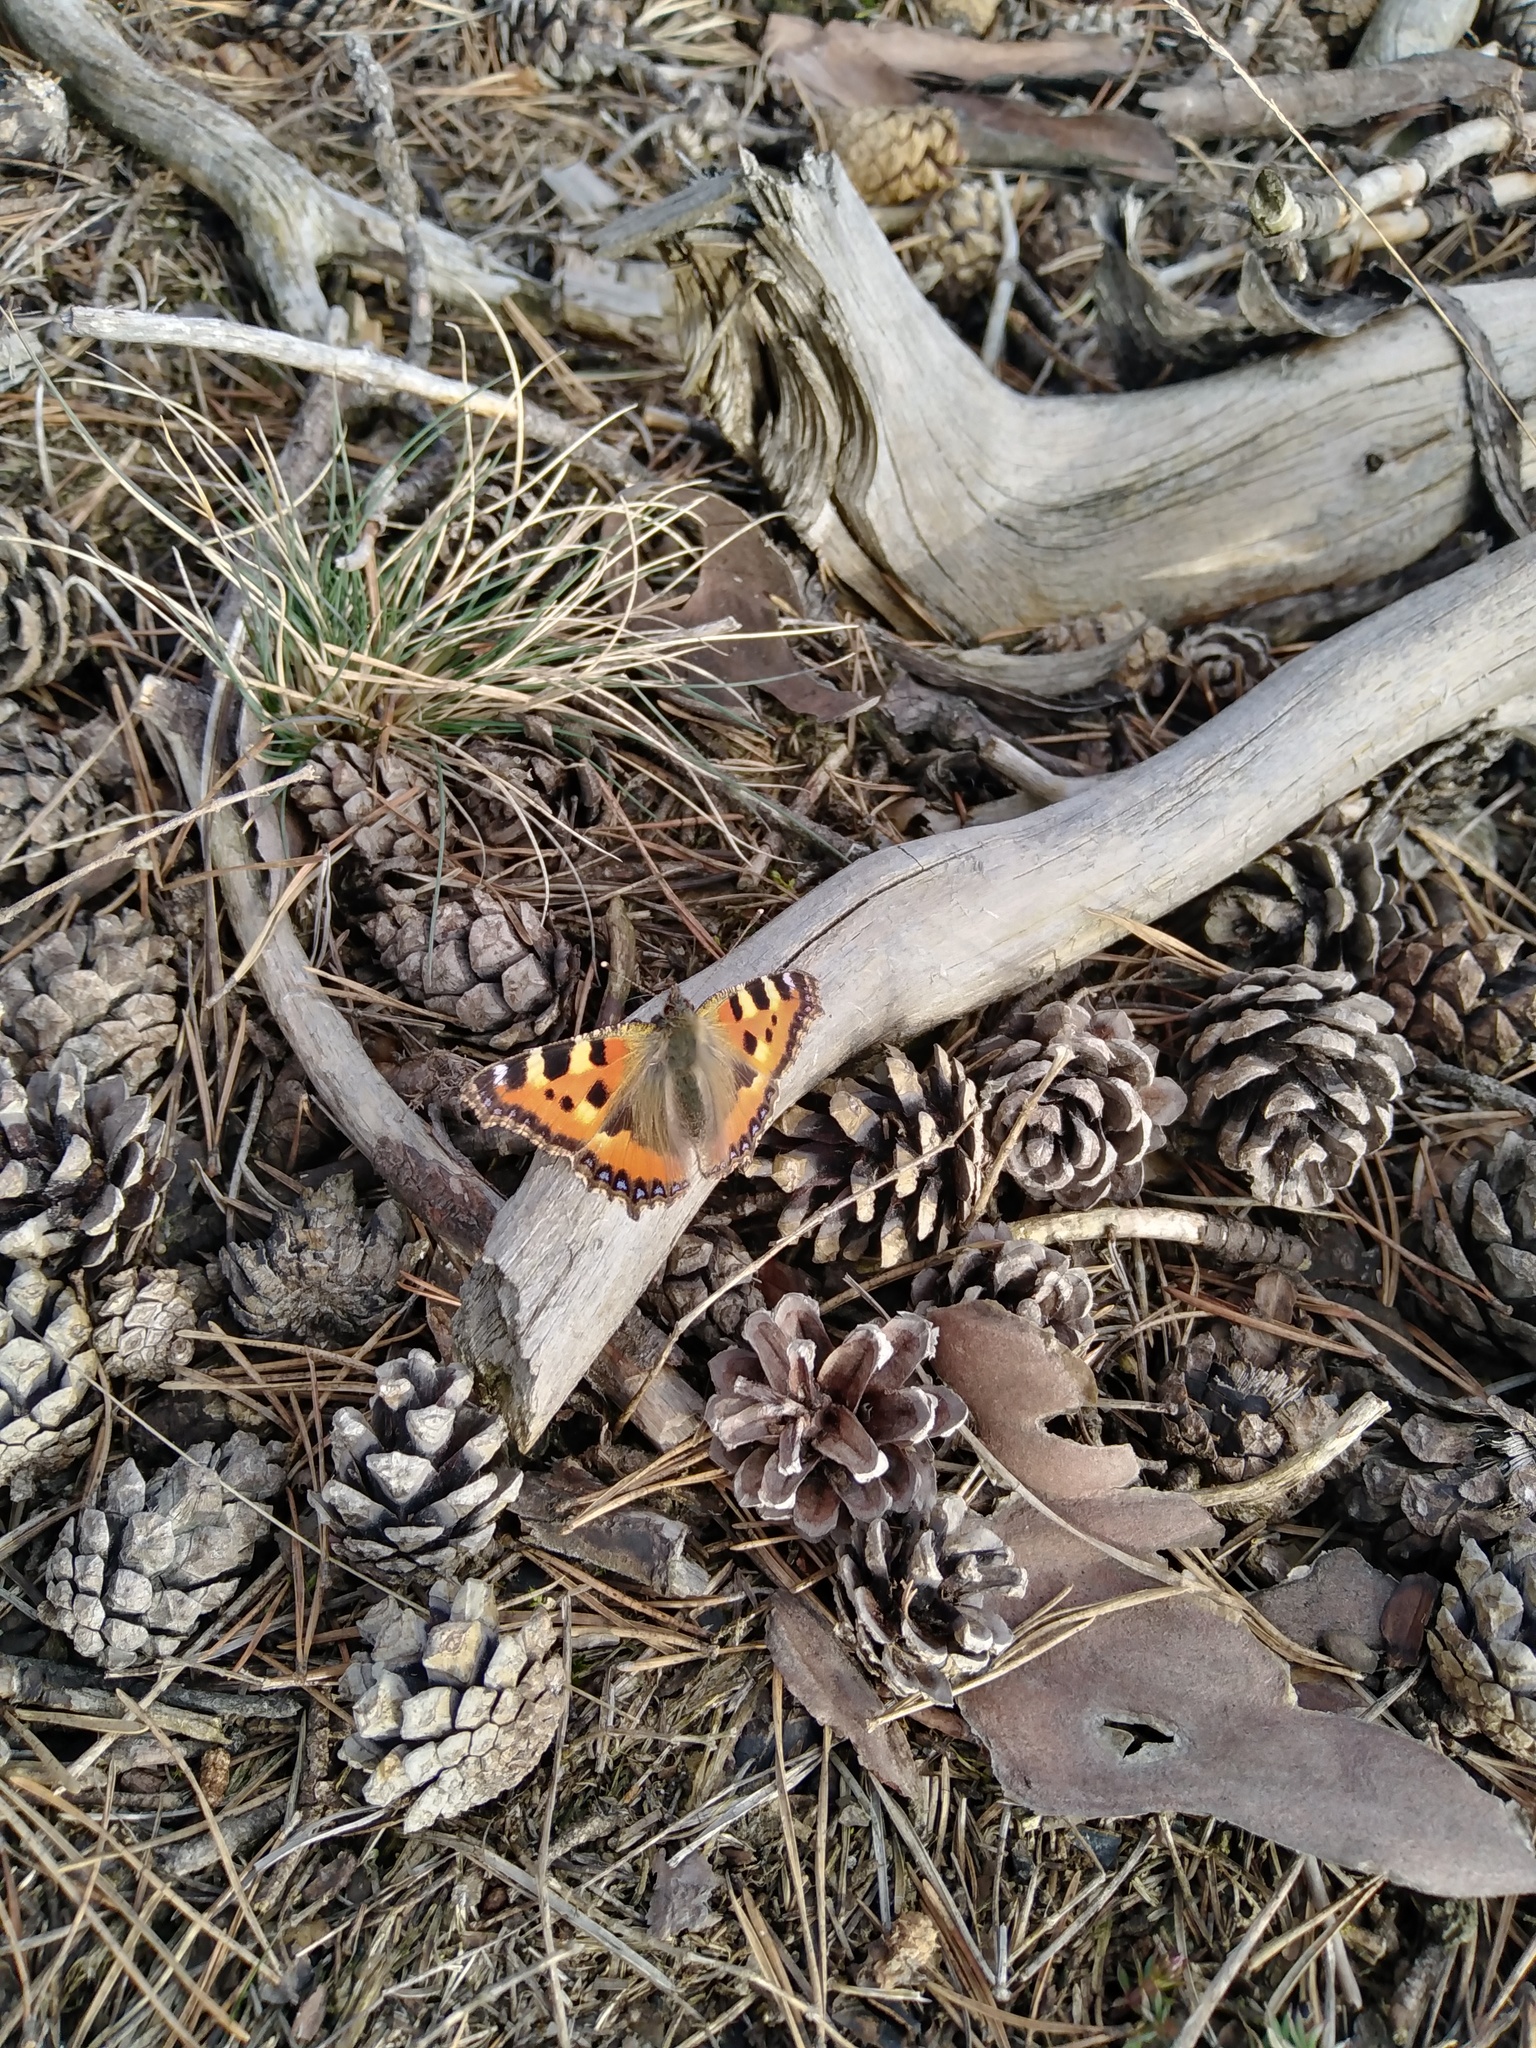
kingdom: Animalia
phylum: Arthropoda
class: Insecta
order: Lepidoptera
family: Nymphalidae
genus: Aglais
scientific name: Aglais urticae
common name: Small tortoiseshell
